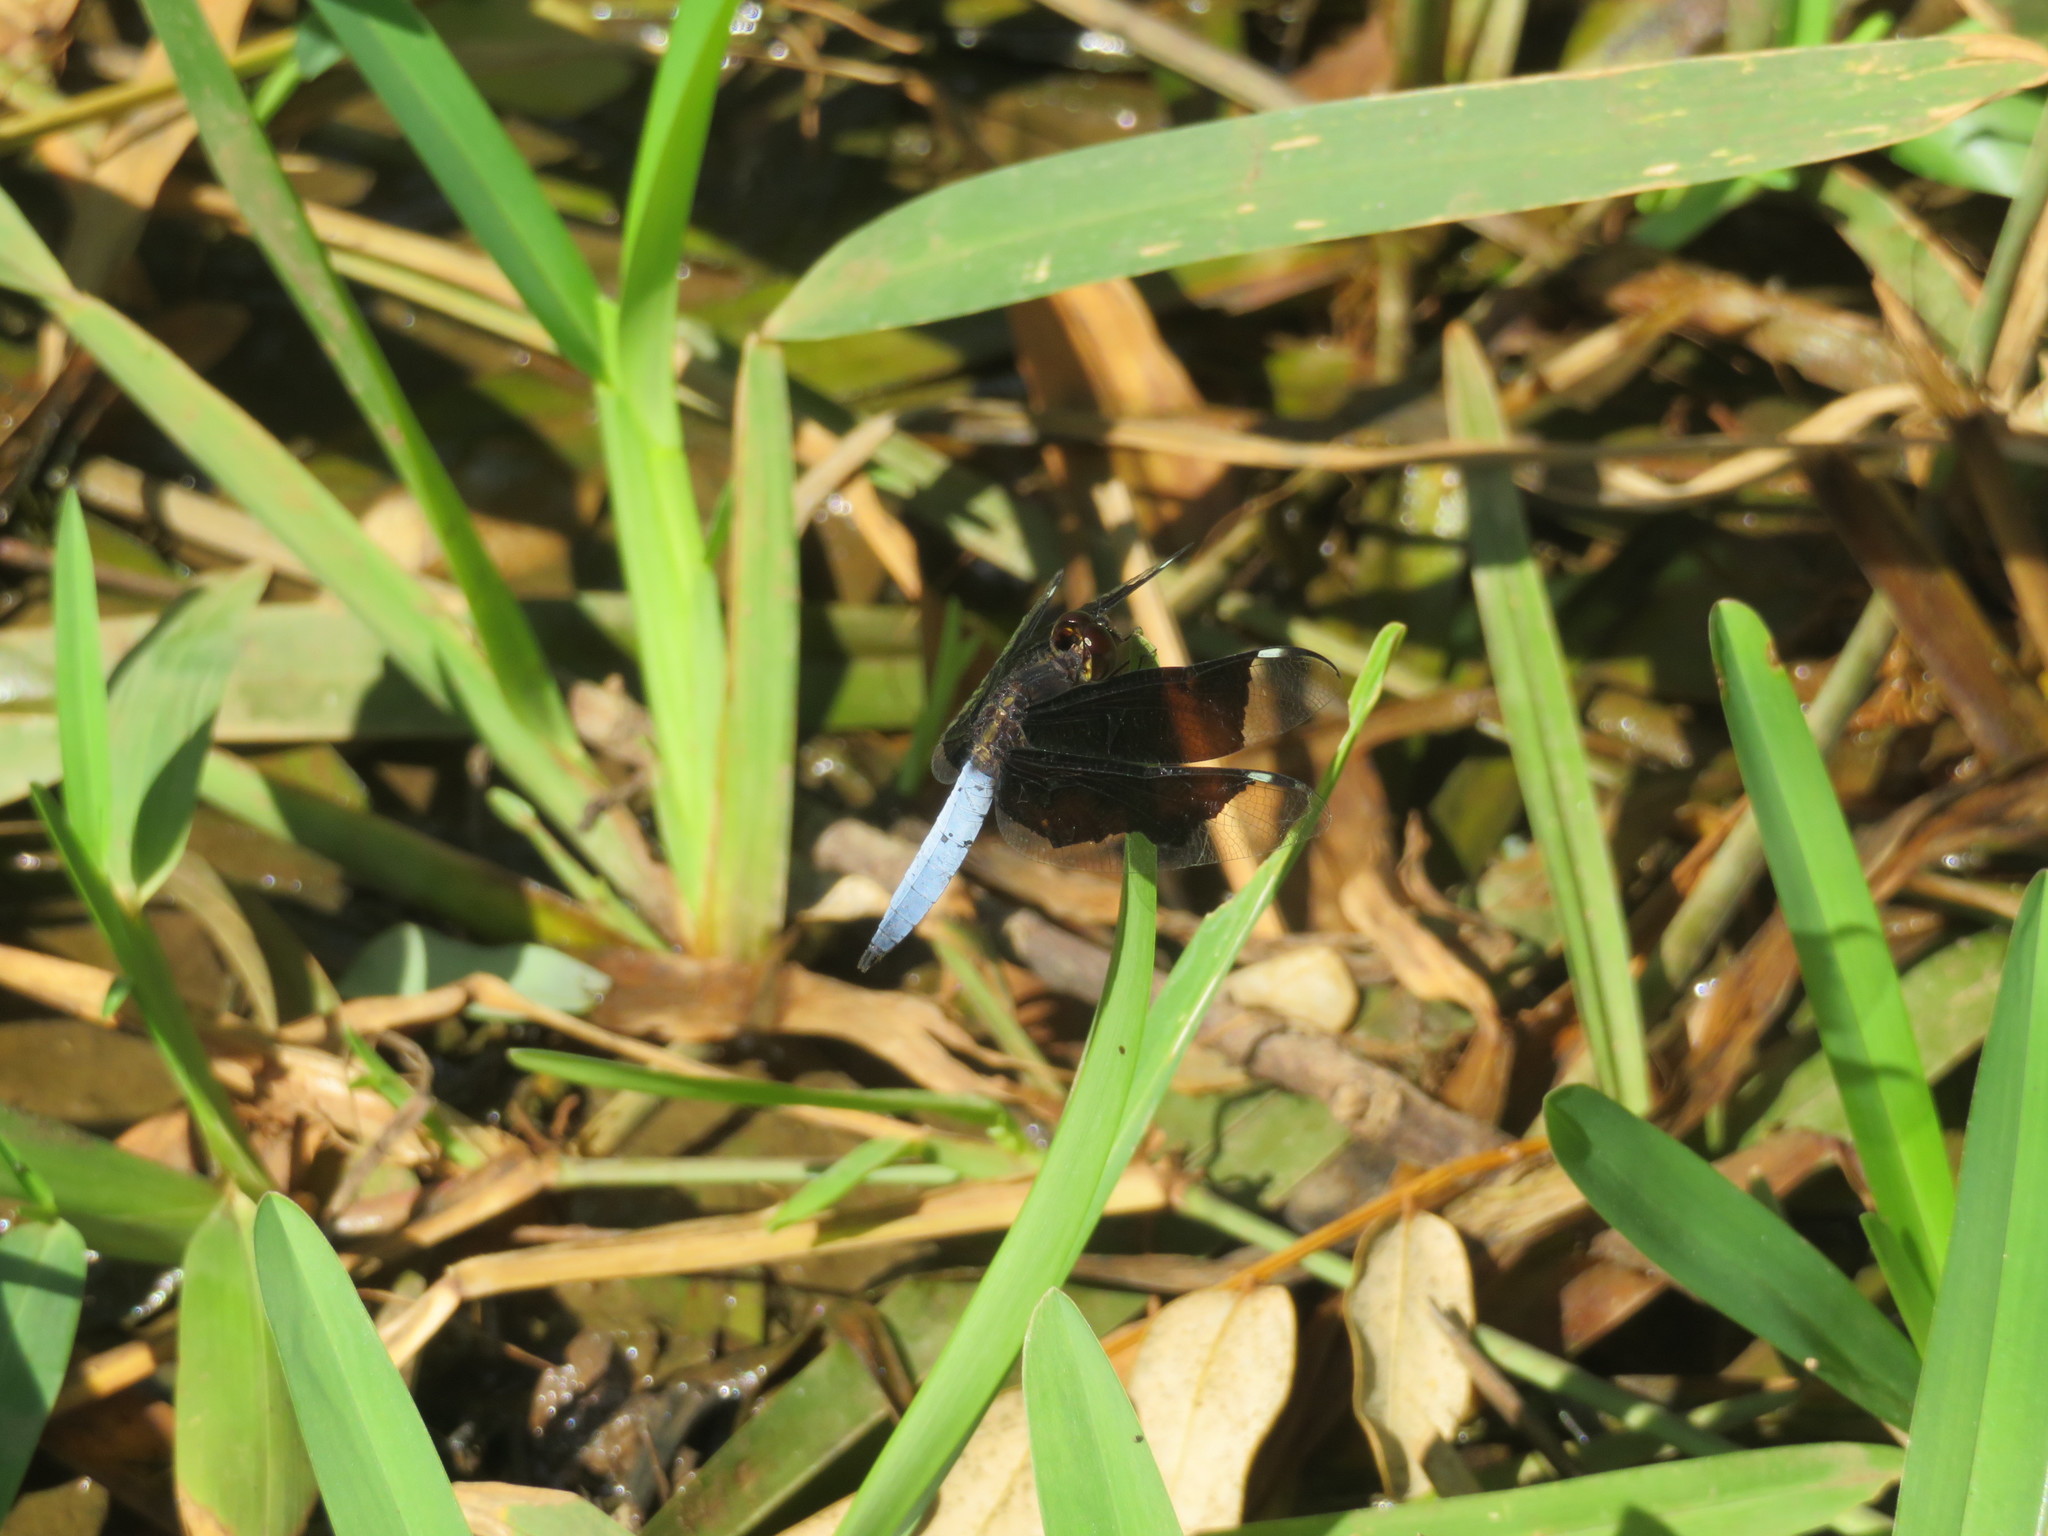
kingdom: Animalia
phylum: Arthropoda
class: Insecta
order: Odonata
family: Libellulidae
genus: Palpopleura
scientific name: Palpopleura lucia
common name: Lucia widow
